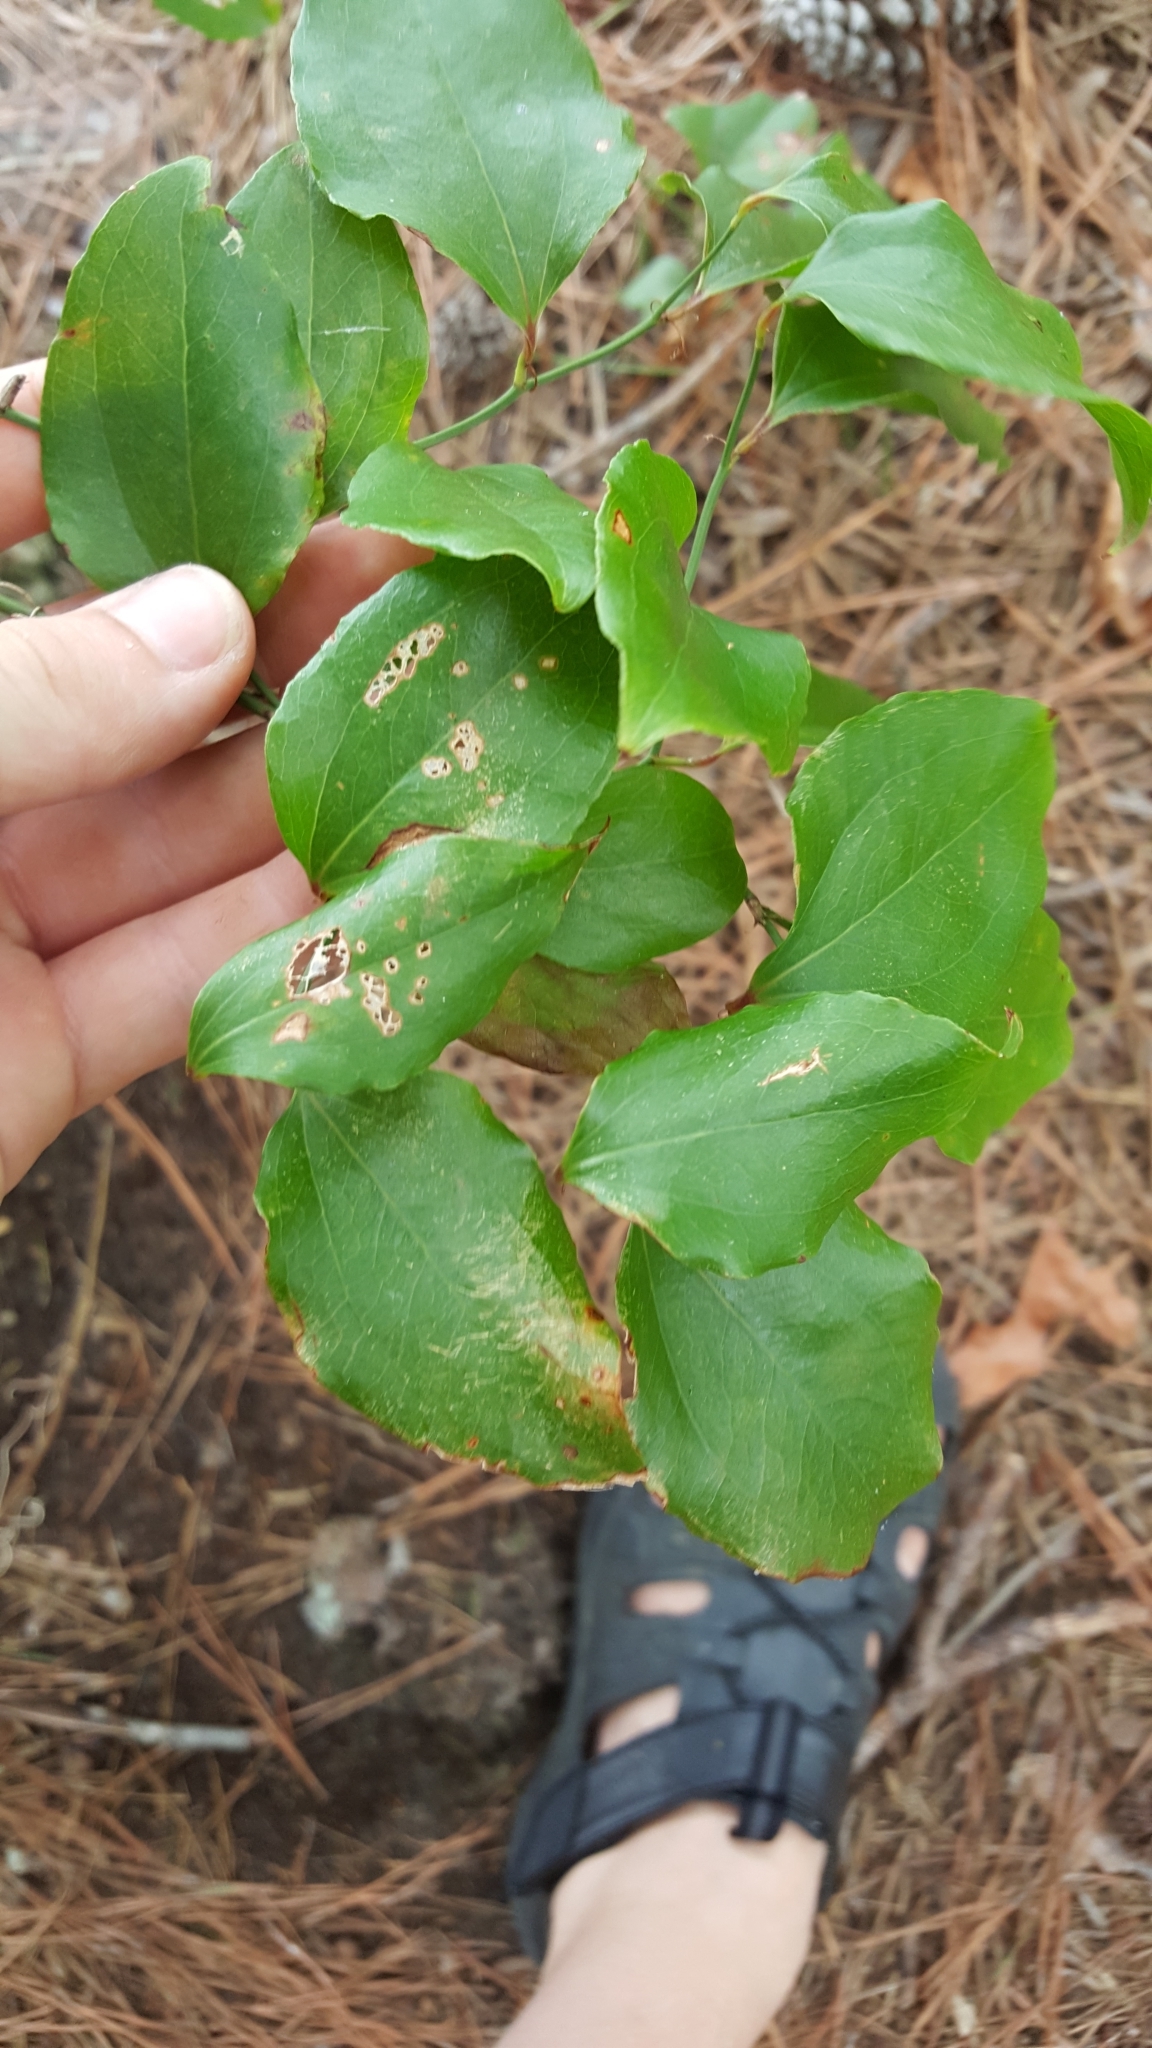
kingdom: Plantae
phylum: Tracheophyta
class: Liliopsida
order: Liliales
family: Smilacaceae
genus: Smilax
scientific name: Smilax rotundifolia
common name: Bullbriar
